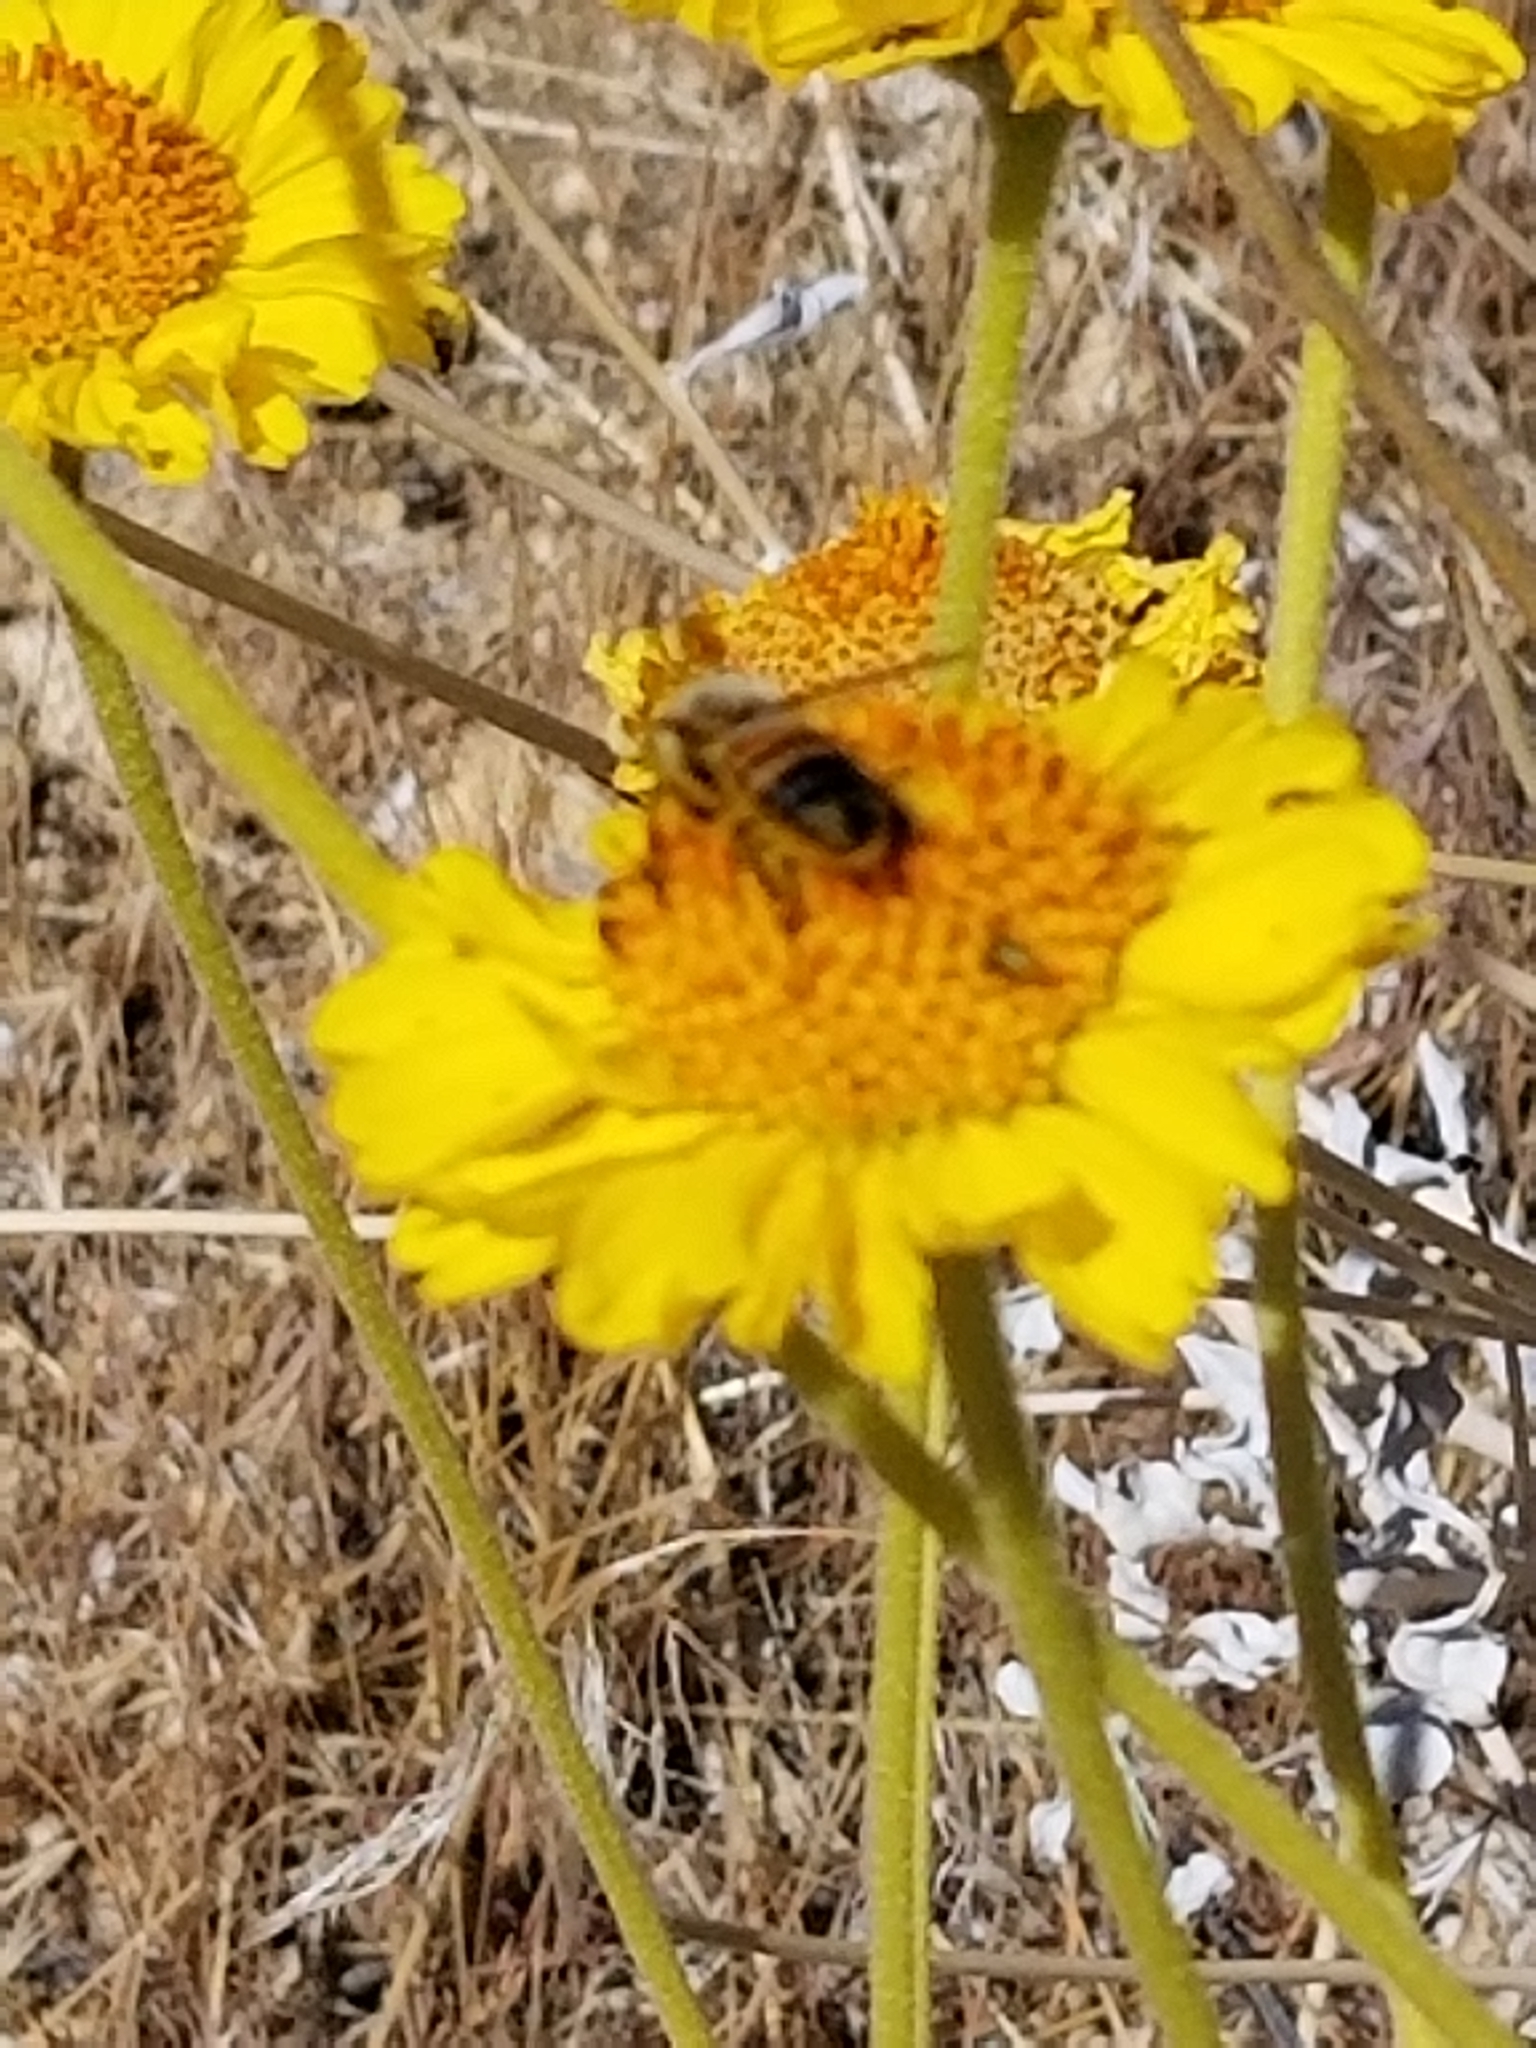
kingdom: Animalia
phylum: Arthropoda
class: Insecta
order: Hymenoptera
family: Apidae
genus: Apis
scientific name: Apis mellifera
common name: Honey bee
